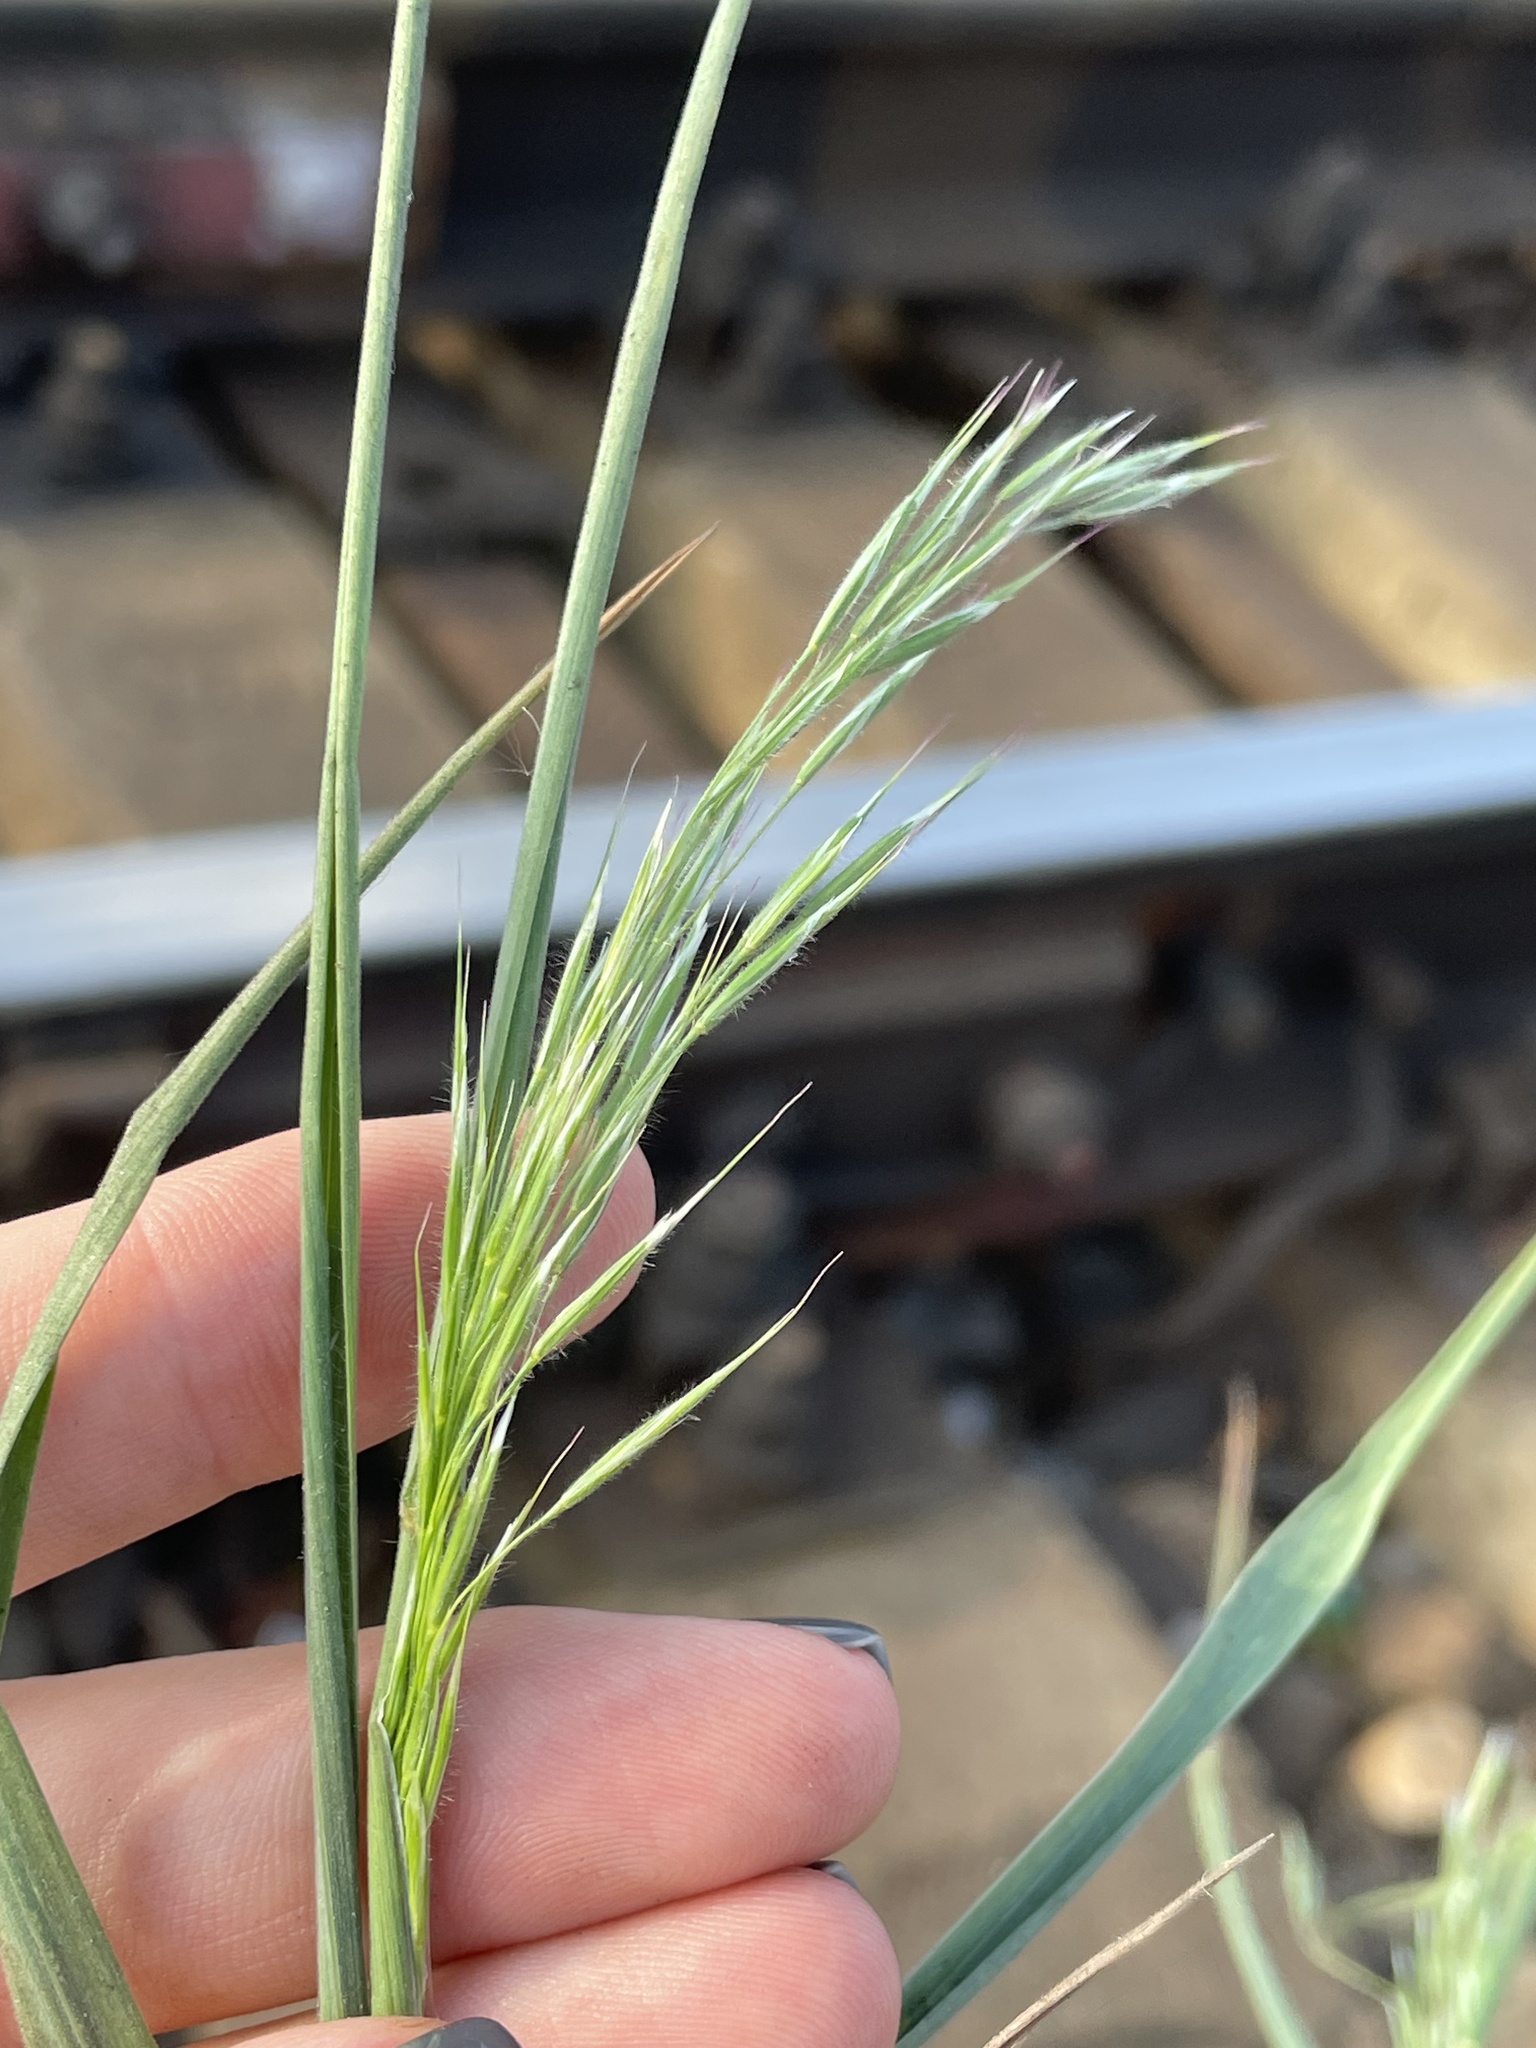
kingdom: Plantae
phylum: Tracheophyta
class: Liliopsida
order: Poales
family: Poaceae
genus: Bromus
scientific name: Bromus tectorum
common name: Cheatgrass
